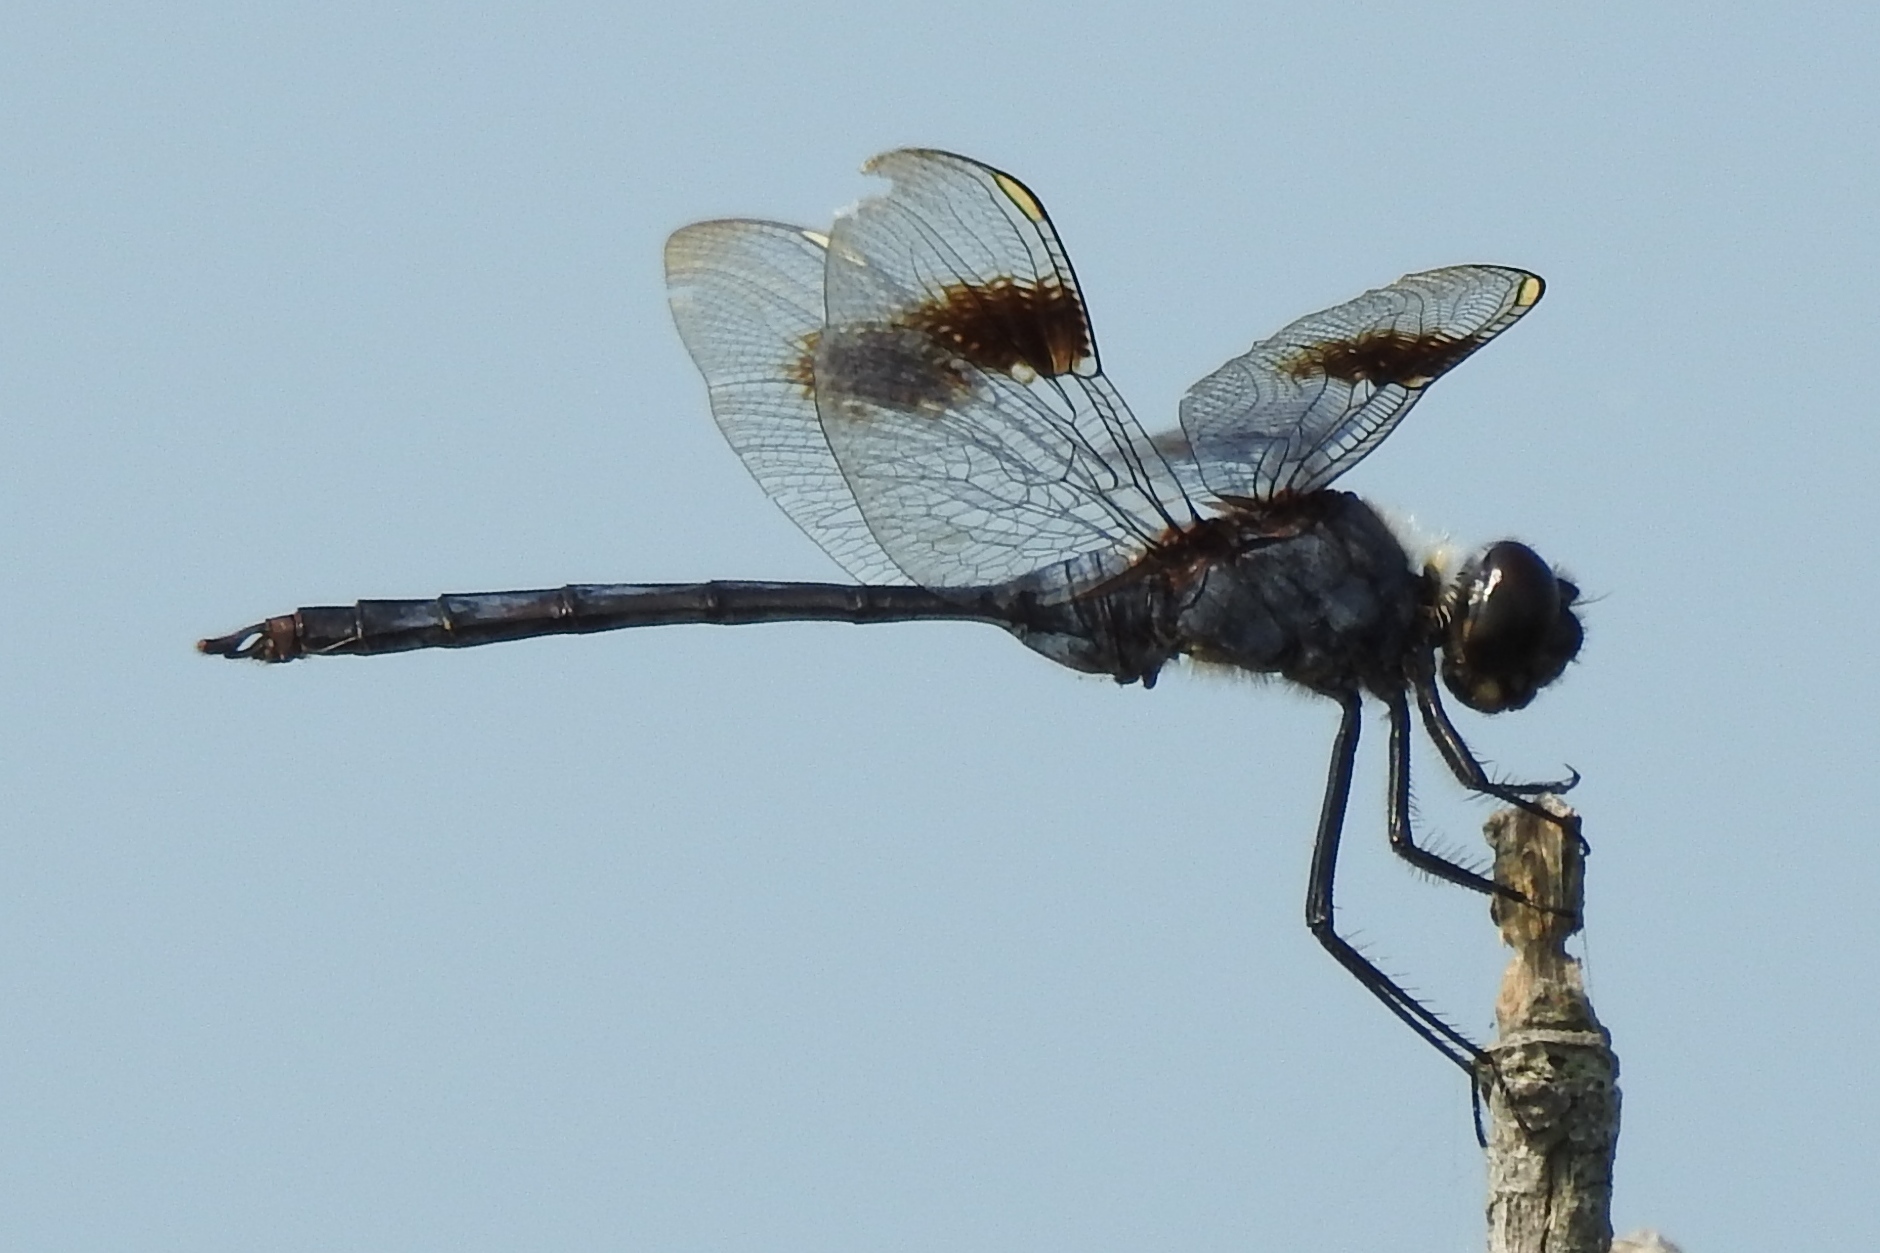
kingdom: Animalia
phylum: Arthropoda
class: Insecta
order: Odonata
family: Libellulidae
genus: Brachymesia
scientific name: Brachymesia gravida
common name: Four-spotted pennant
